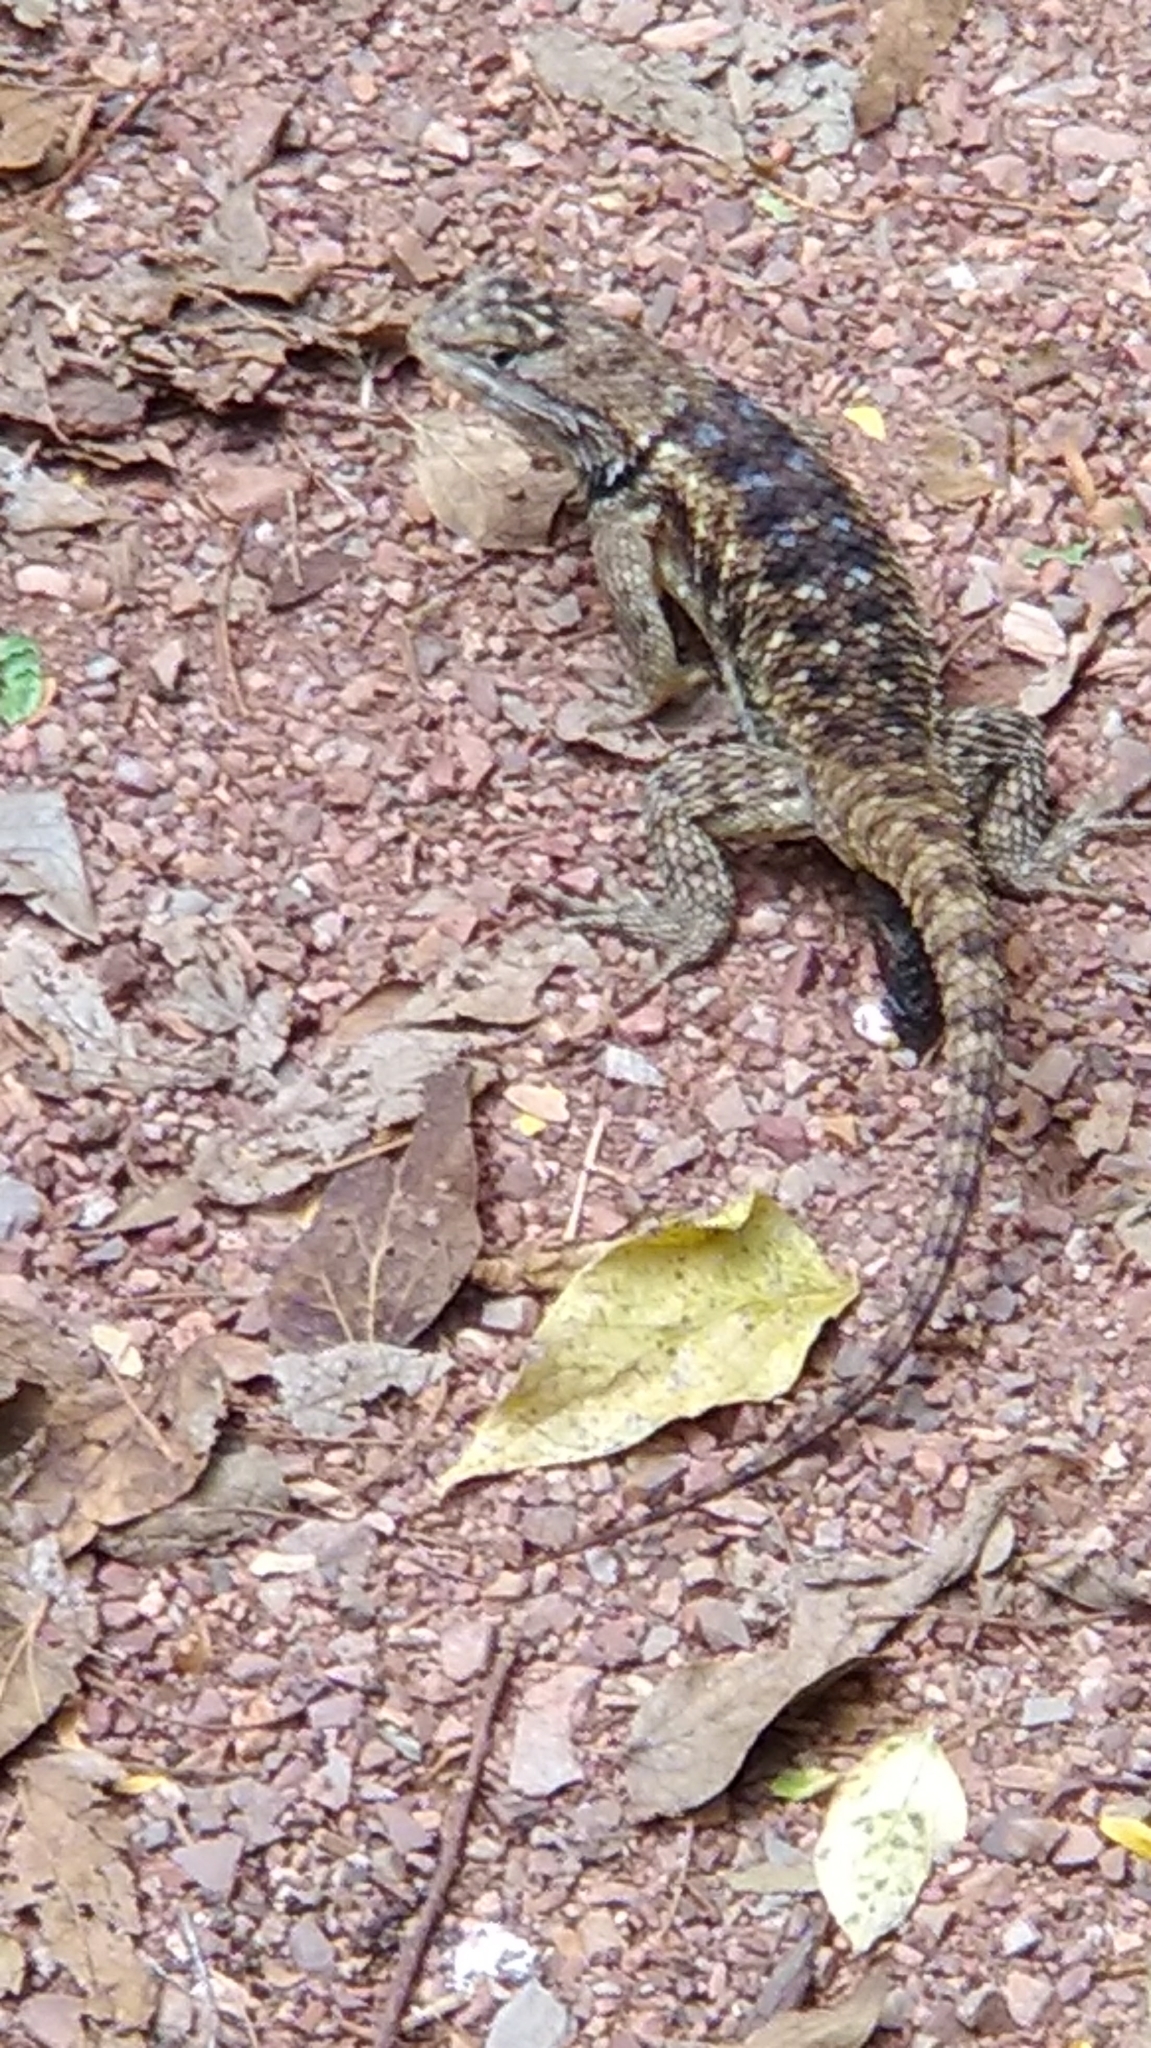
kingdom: Animalia
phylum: Chordata
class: Squamata
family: Phrynosomatidae
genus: Sceloporus
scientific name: Sceloporus magister
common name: Desert spiny lizard
